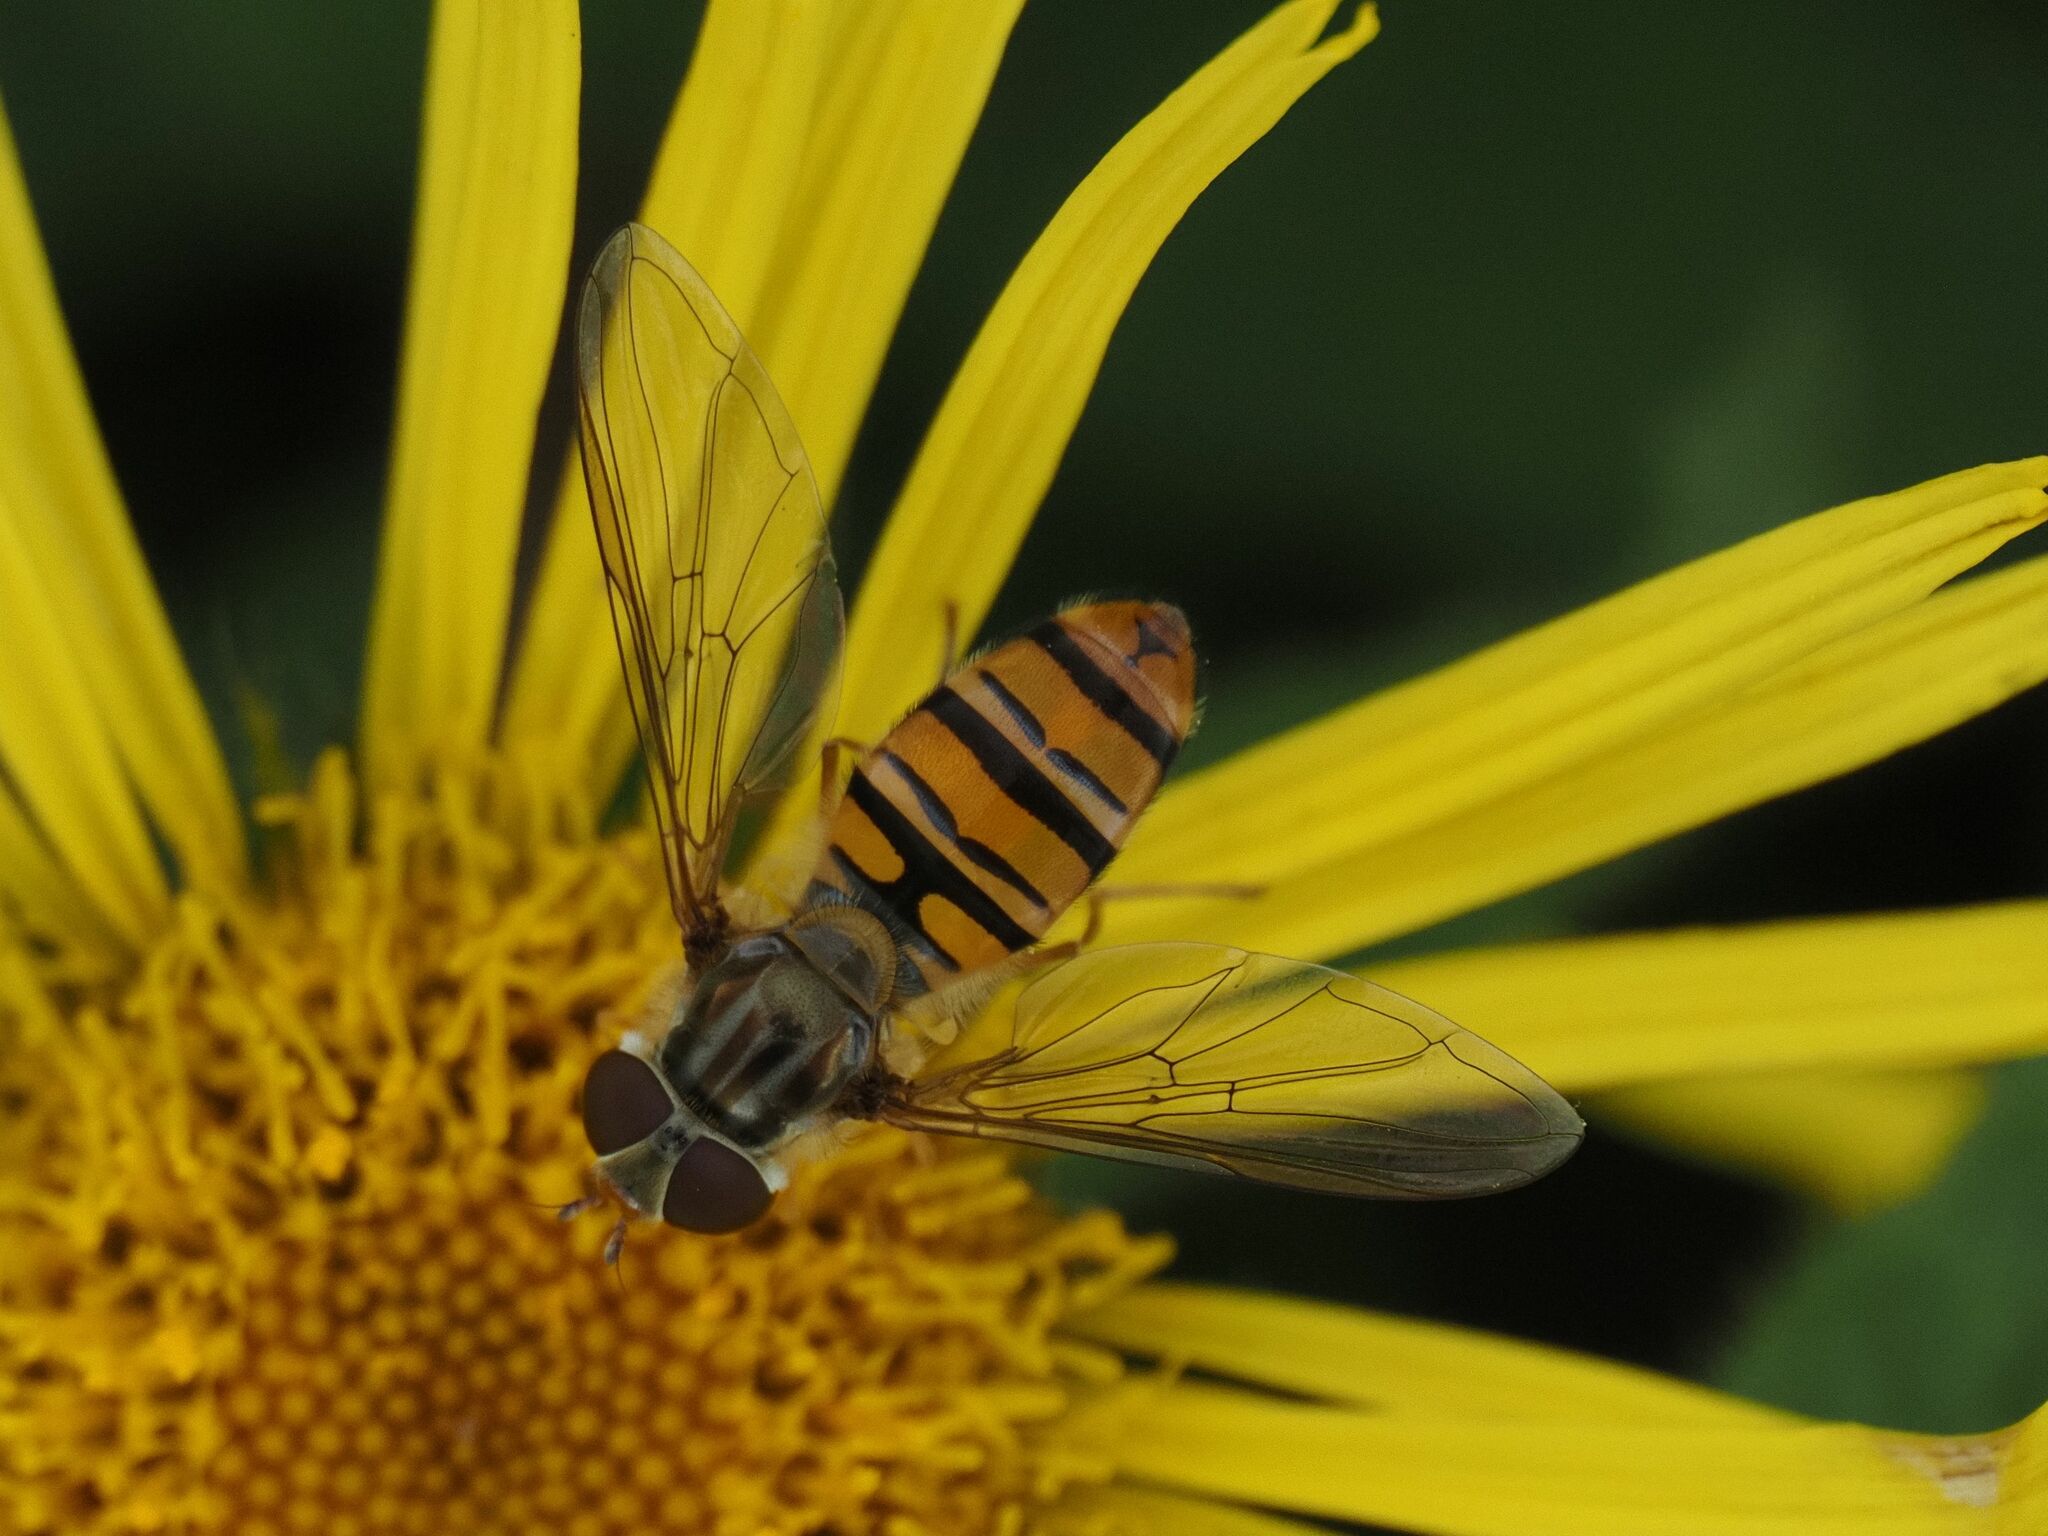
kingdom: Animalia
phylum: Arthropoda
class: Insecta
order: Diptera
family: Syrphidae
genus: Episyrphus
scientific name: Episyrphus balteatus
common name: Marmalade hoverfly
